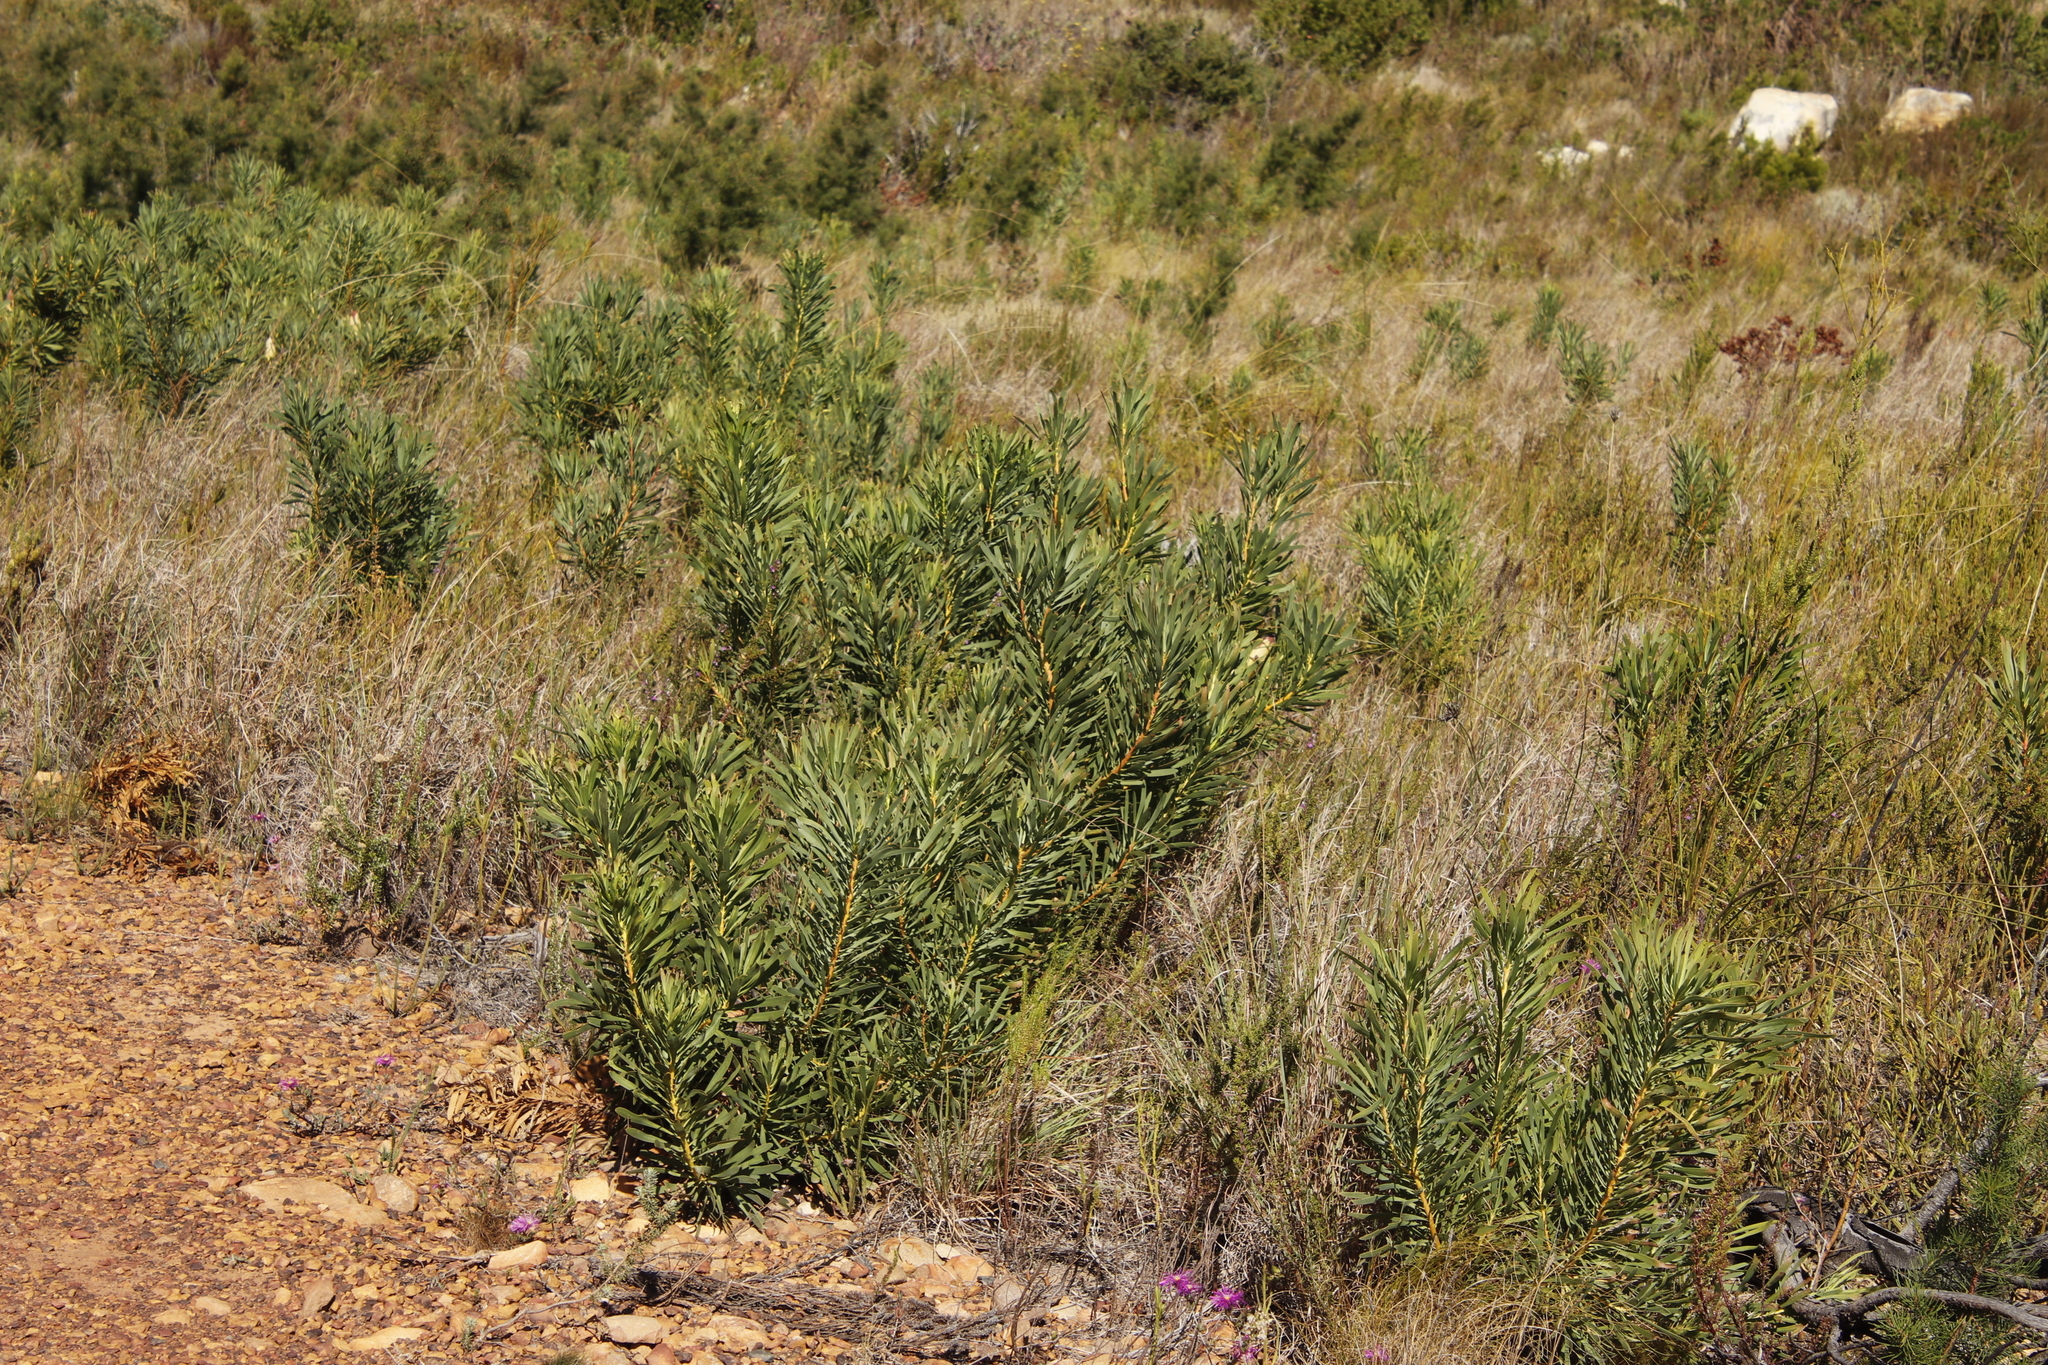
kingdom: Plantae
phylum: Tracheophyta
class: Magnoliopsida
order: Proteales
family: Proteaceae
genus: Protea
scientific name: Protea repens
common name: Sugarbush
